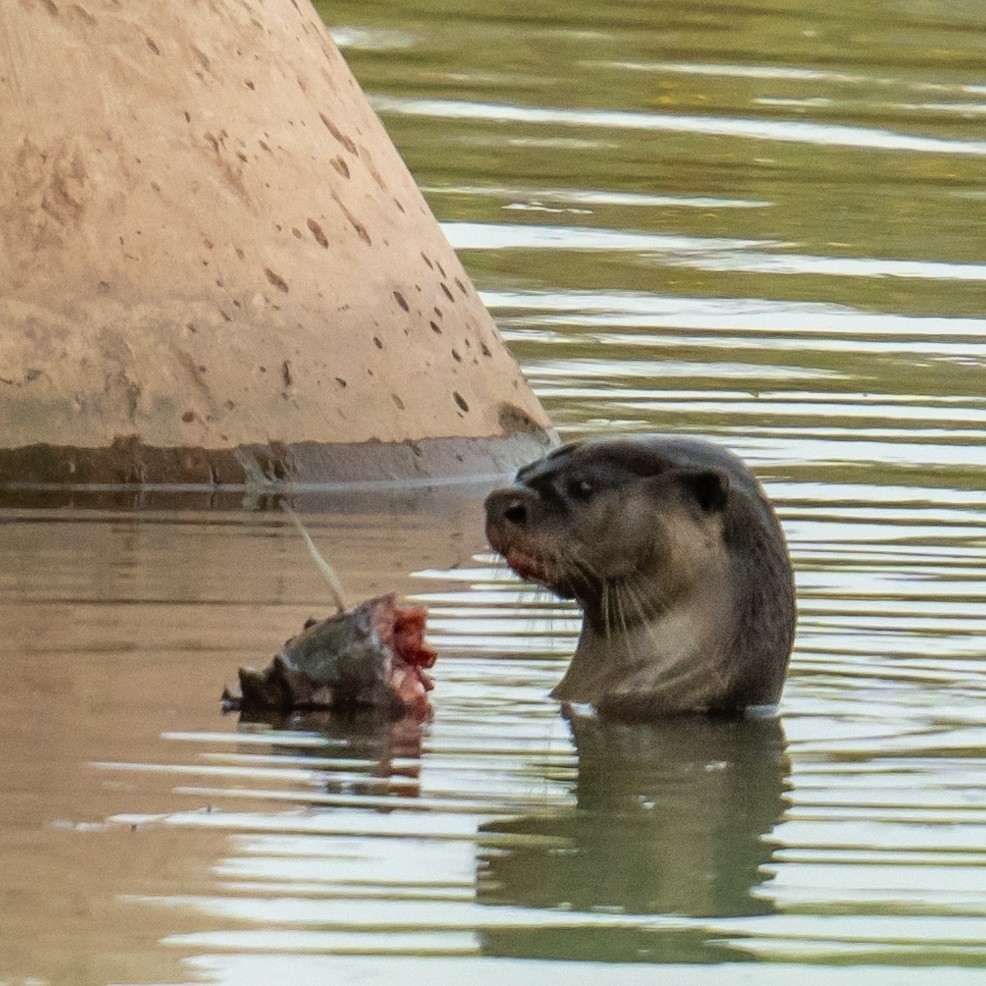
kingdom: Animalia
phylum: Chordata
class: Mammalia
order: Carnivora
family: Mustelidae
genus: Lutrogale
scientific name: Lutrogale perspicillata
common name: Smooth-coated otter
